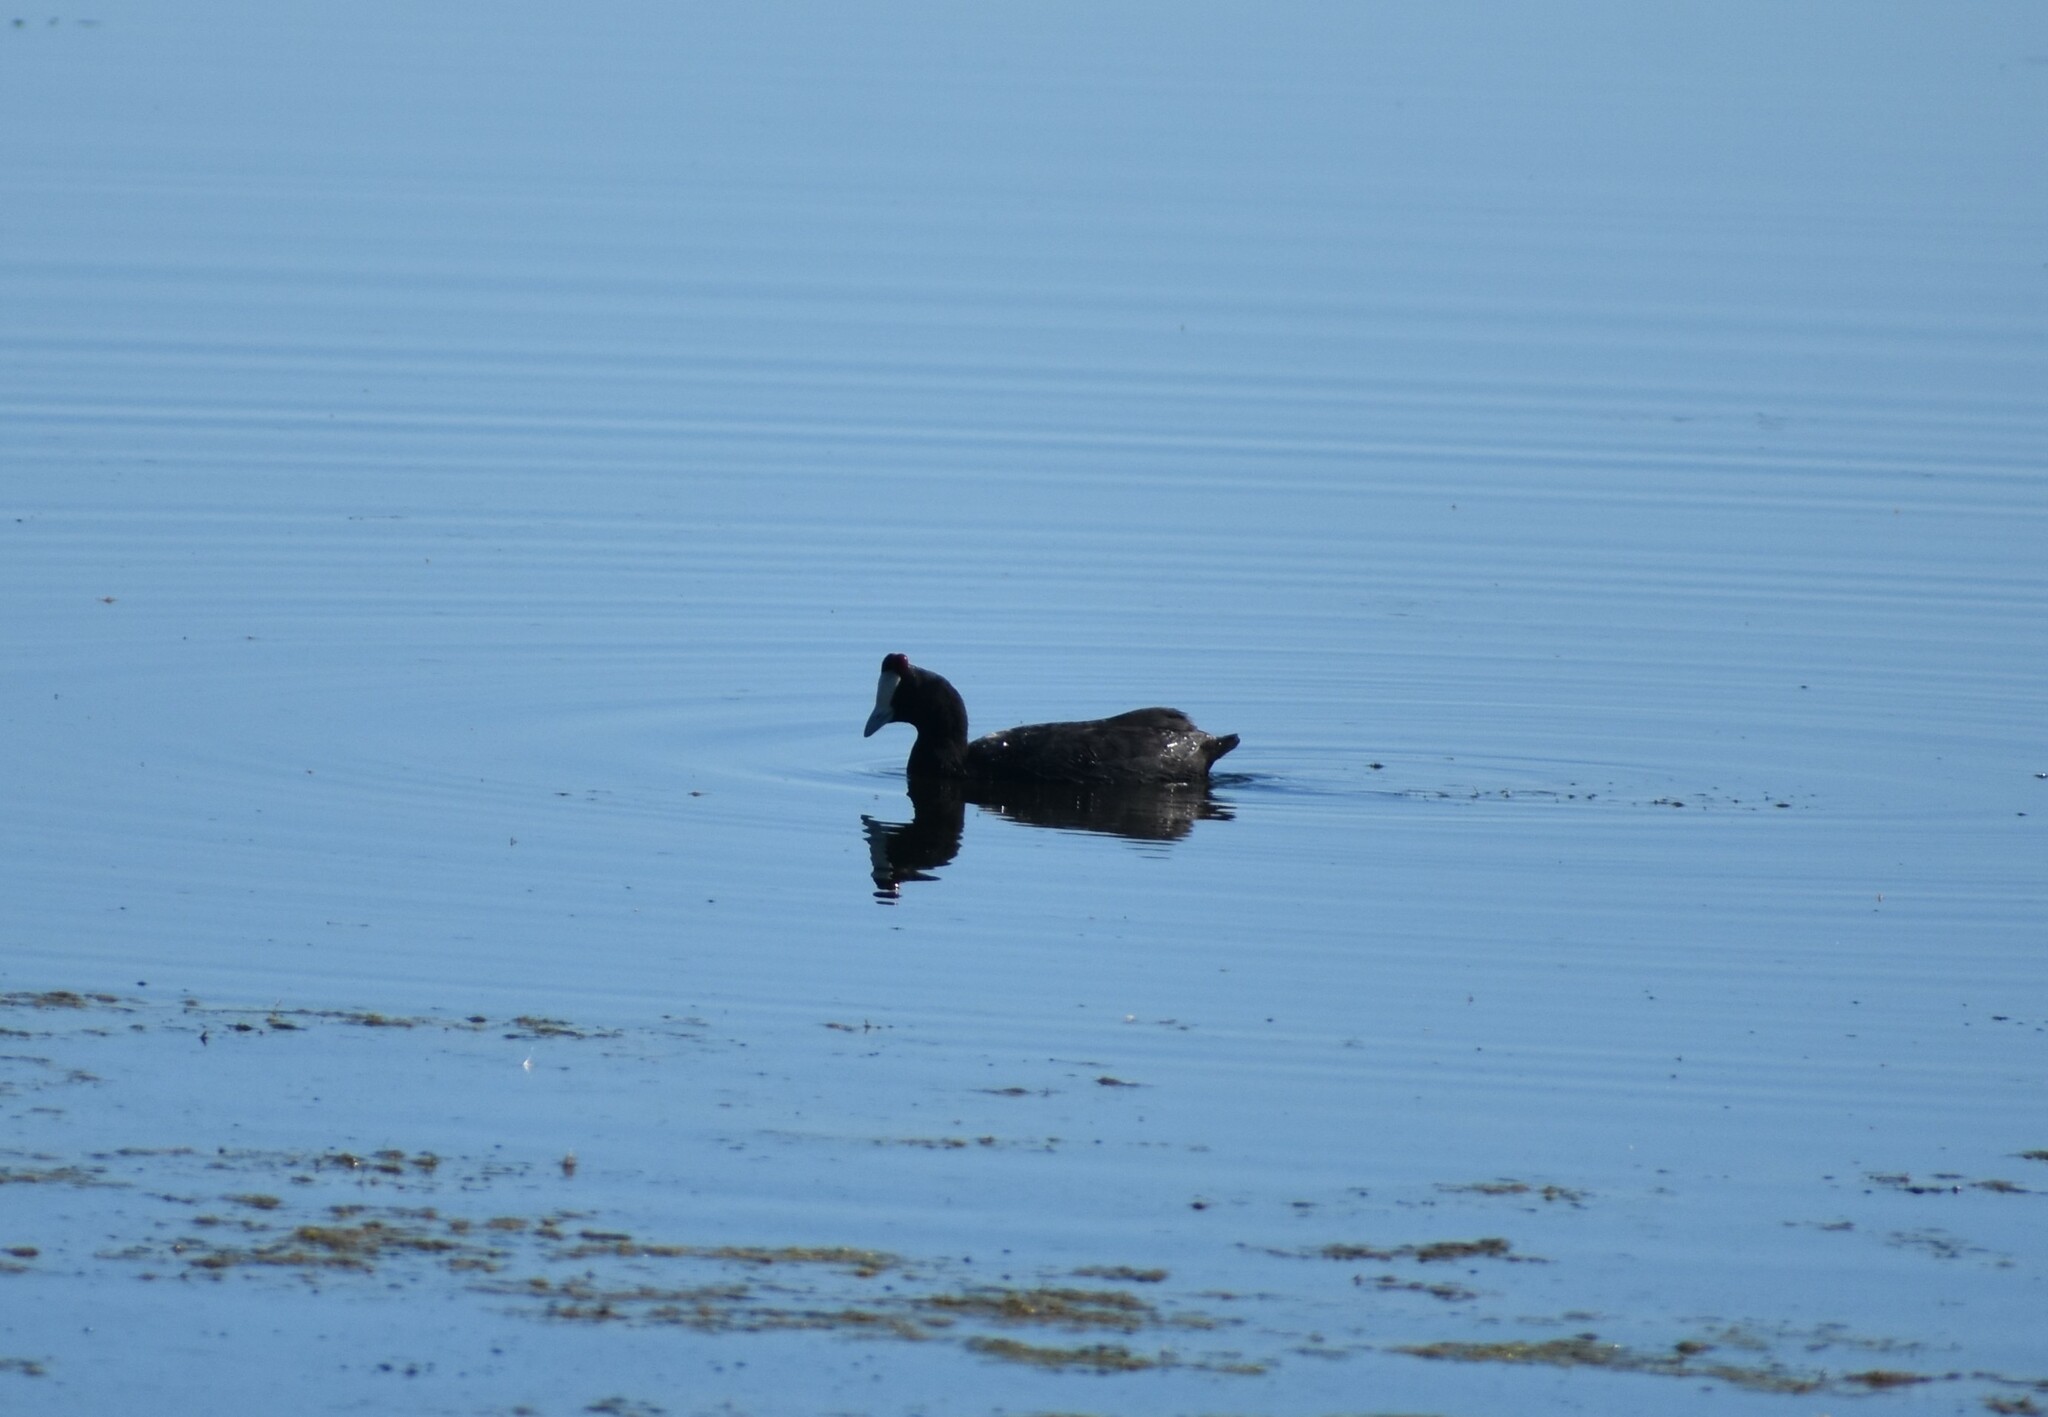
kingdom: Animalia
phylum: Chordata
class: Aves
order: Gruiformes
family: Rallidae
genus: Fulica
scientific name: Fulica cristata
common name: Red-knobbed coot
